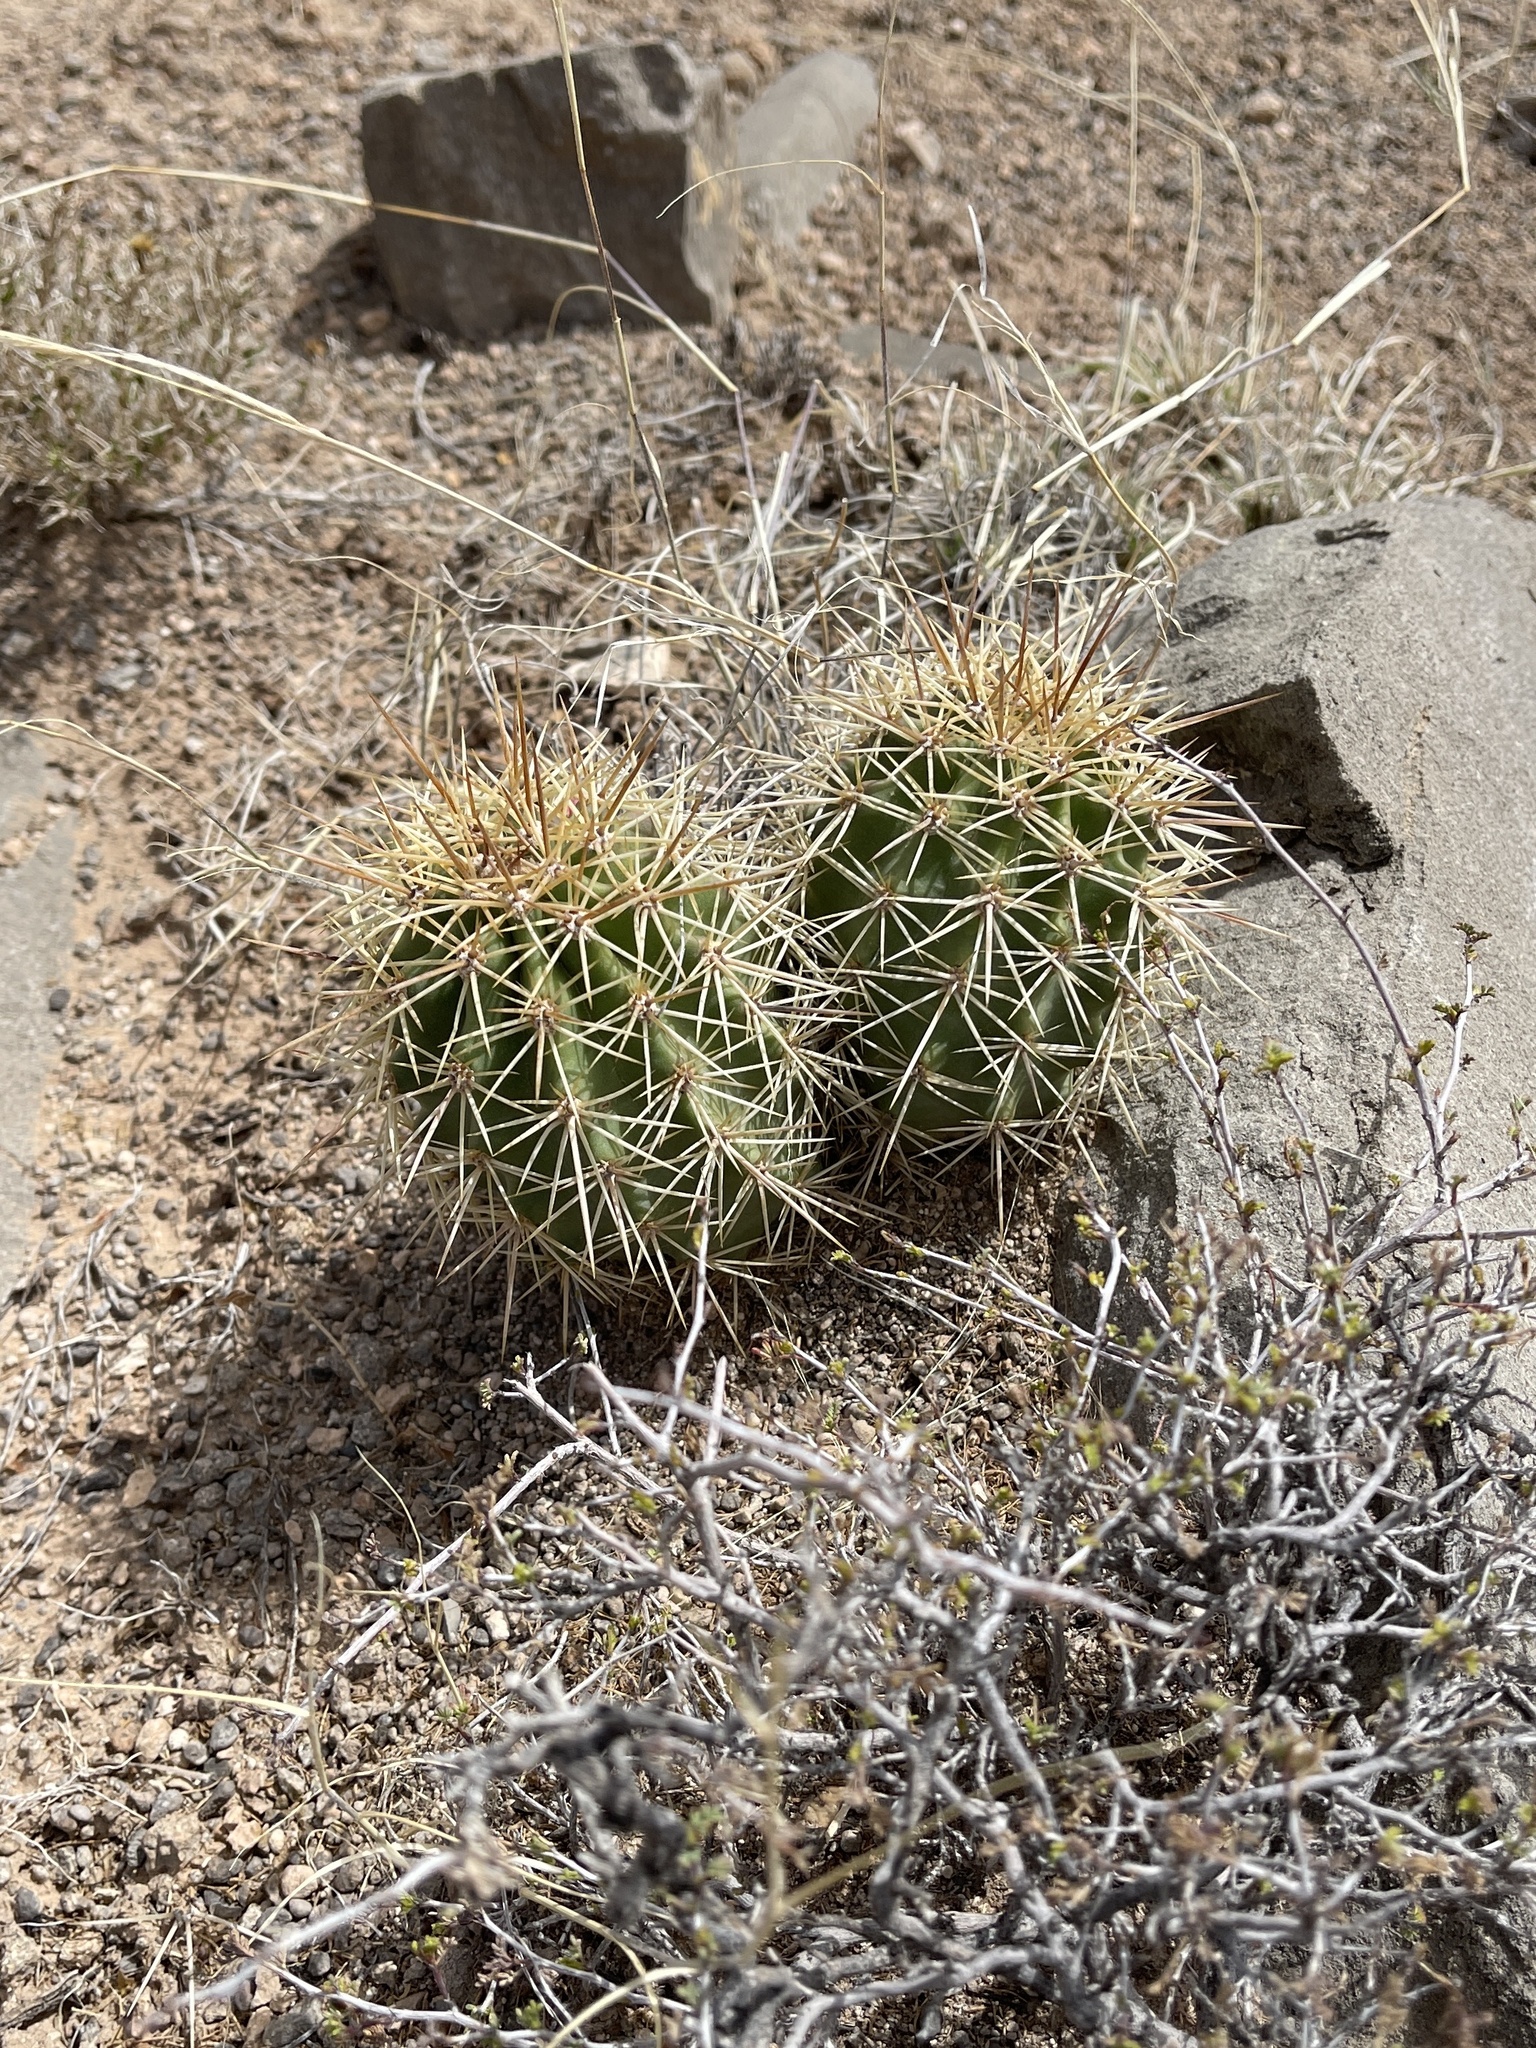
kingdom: Plantae
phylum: Tracheophyta
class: Magnoliopsida
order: Caryophyllales
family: Cactaceae
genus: Echinocereus
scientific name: Echinocereus coccineus
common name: Scarlet hedgehog cactus
